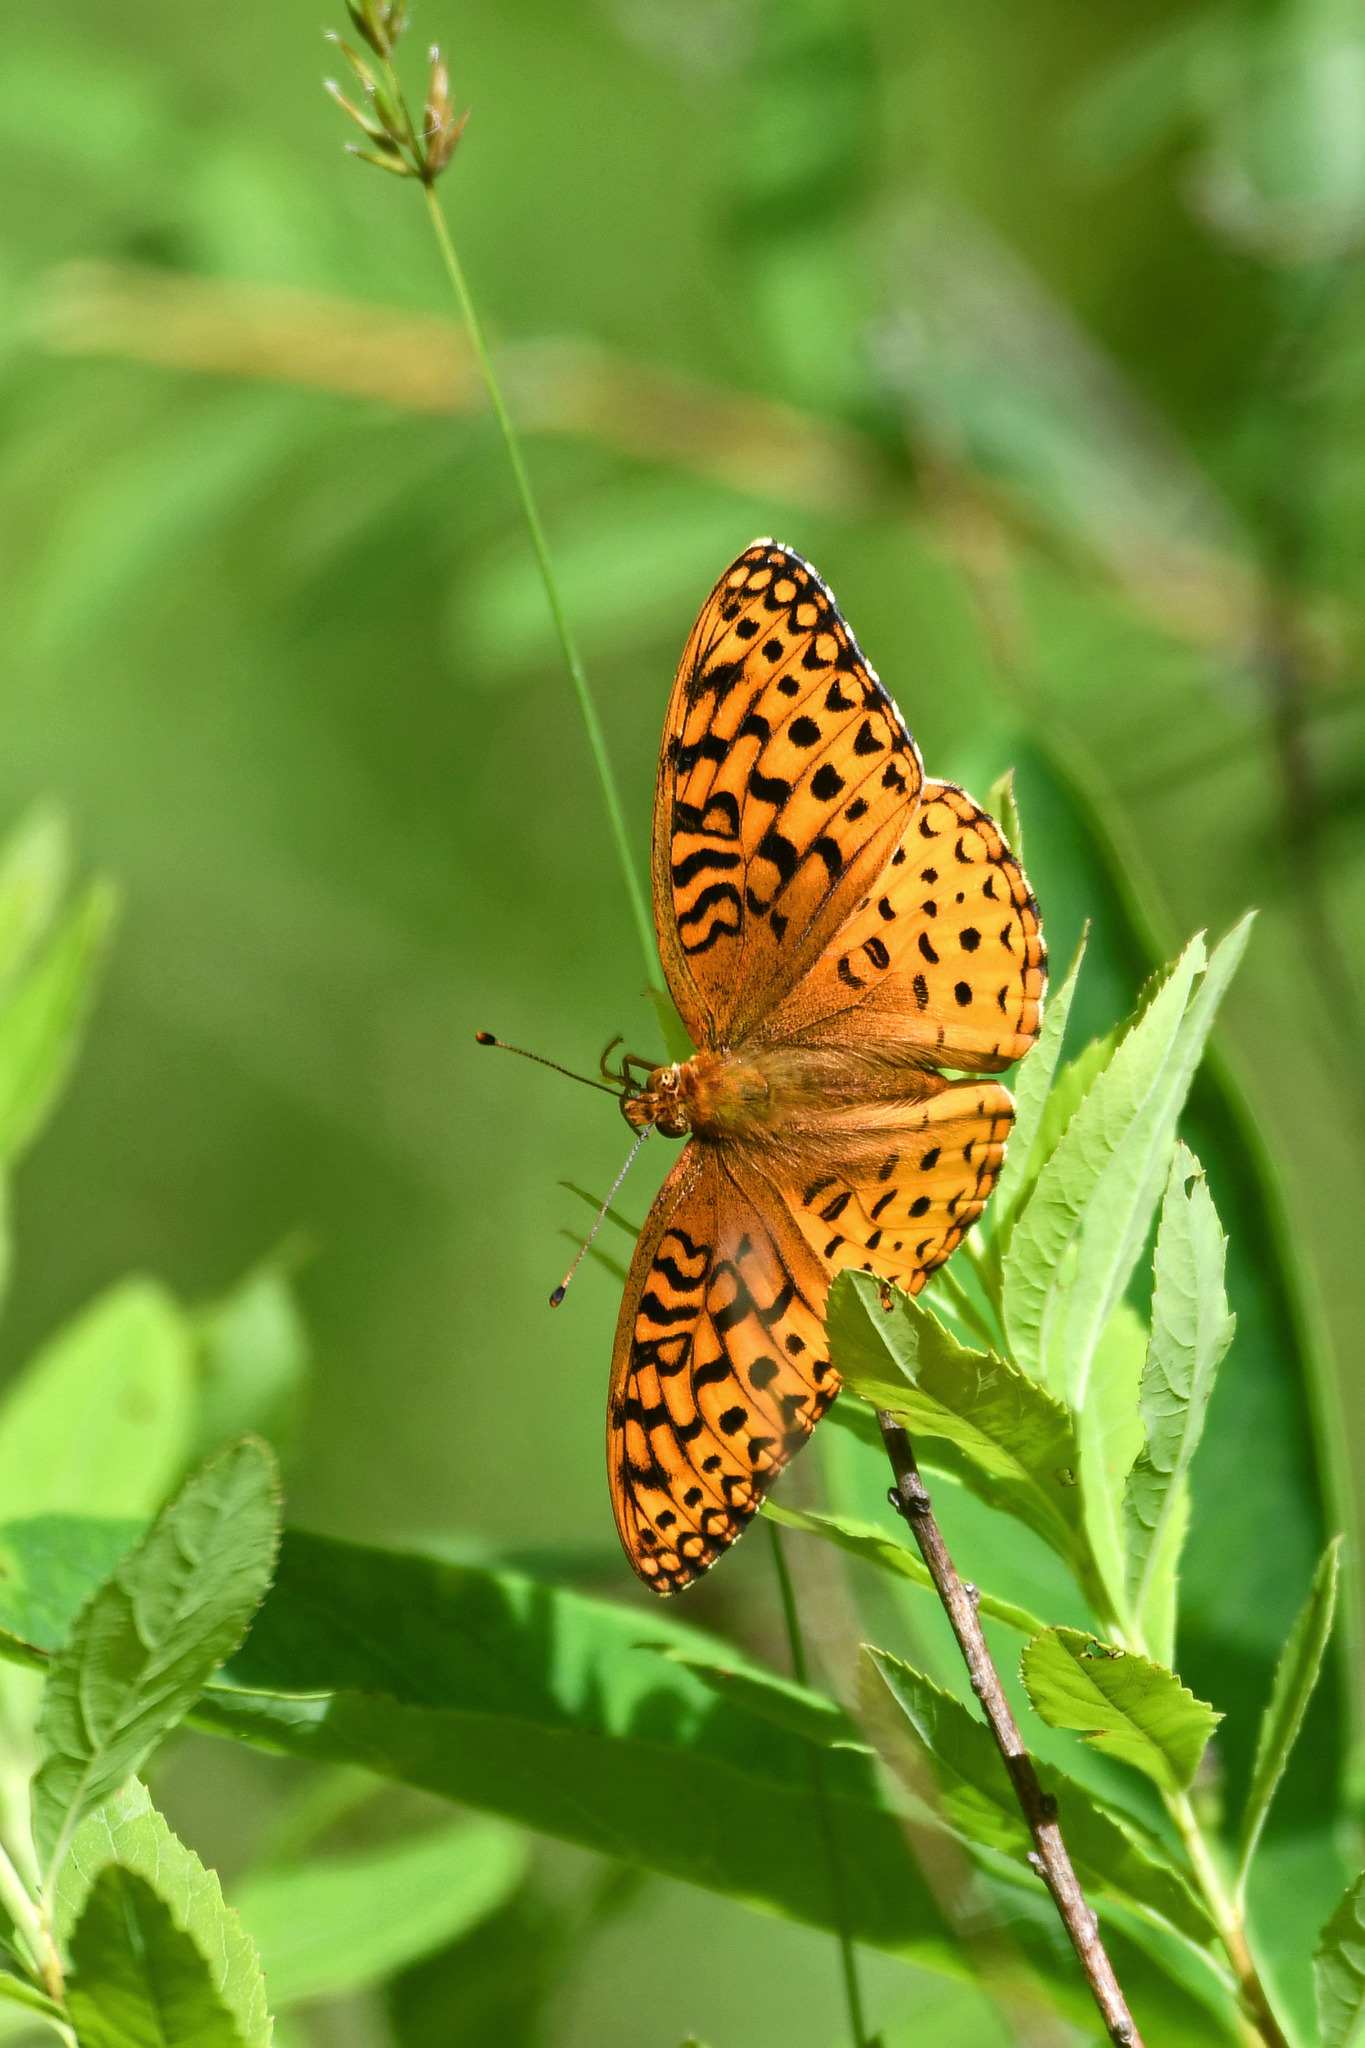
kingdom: Animalia
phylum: Arthropoda
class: Insecta
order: Lepidoptera
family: Nymphalidae
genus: Speyeria
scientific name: Speyeria aphrodite
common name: Aphrodite friitllary
